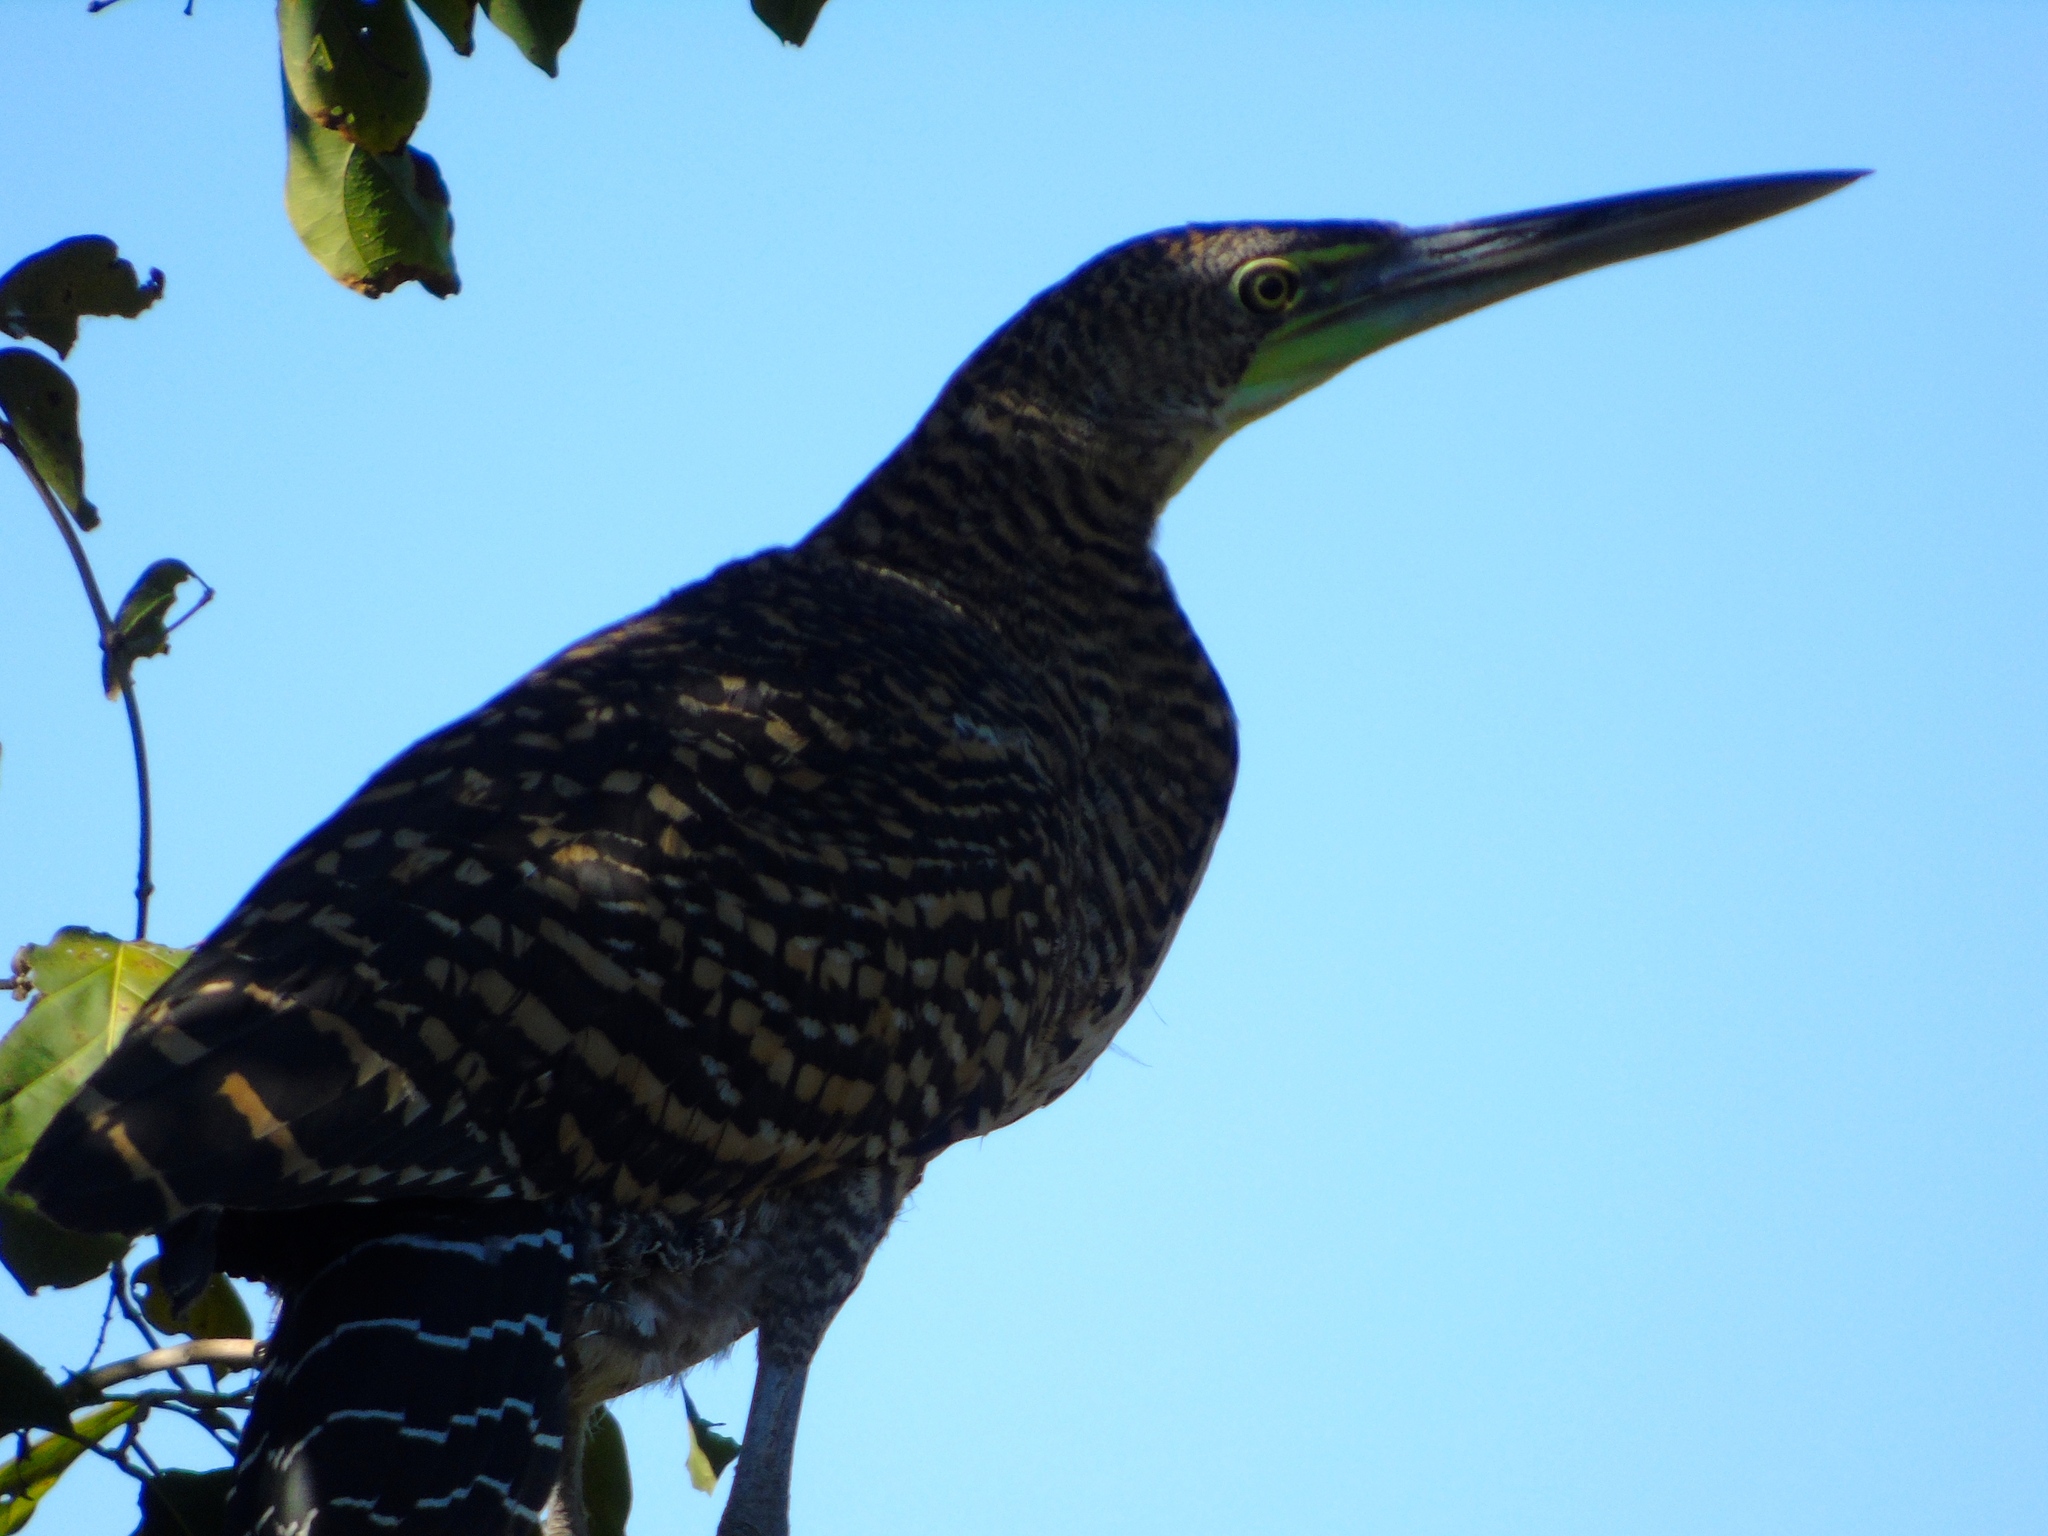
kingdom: Animalia
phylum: Chordata
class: Aves
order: Pelecaniformes
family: Ardeidae
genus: Tigrisoma
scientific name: Tigrisoma mexicanum
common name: Bare-throated tiger-heron
